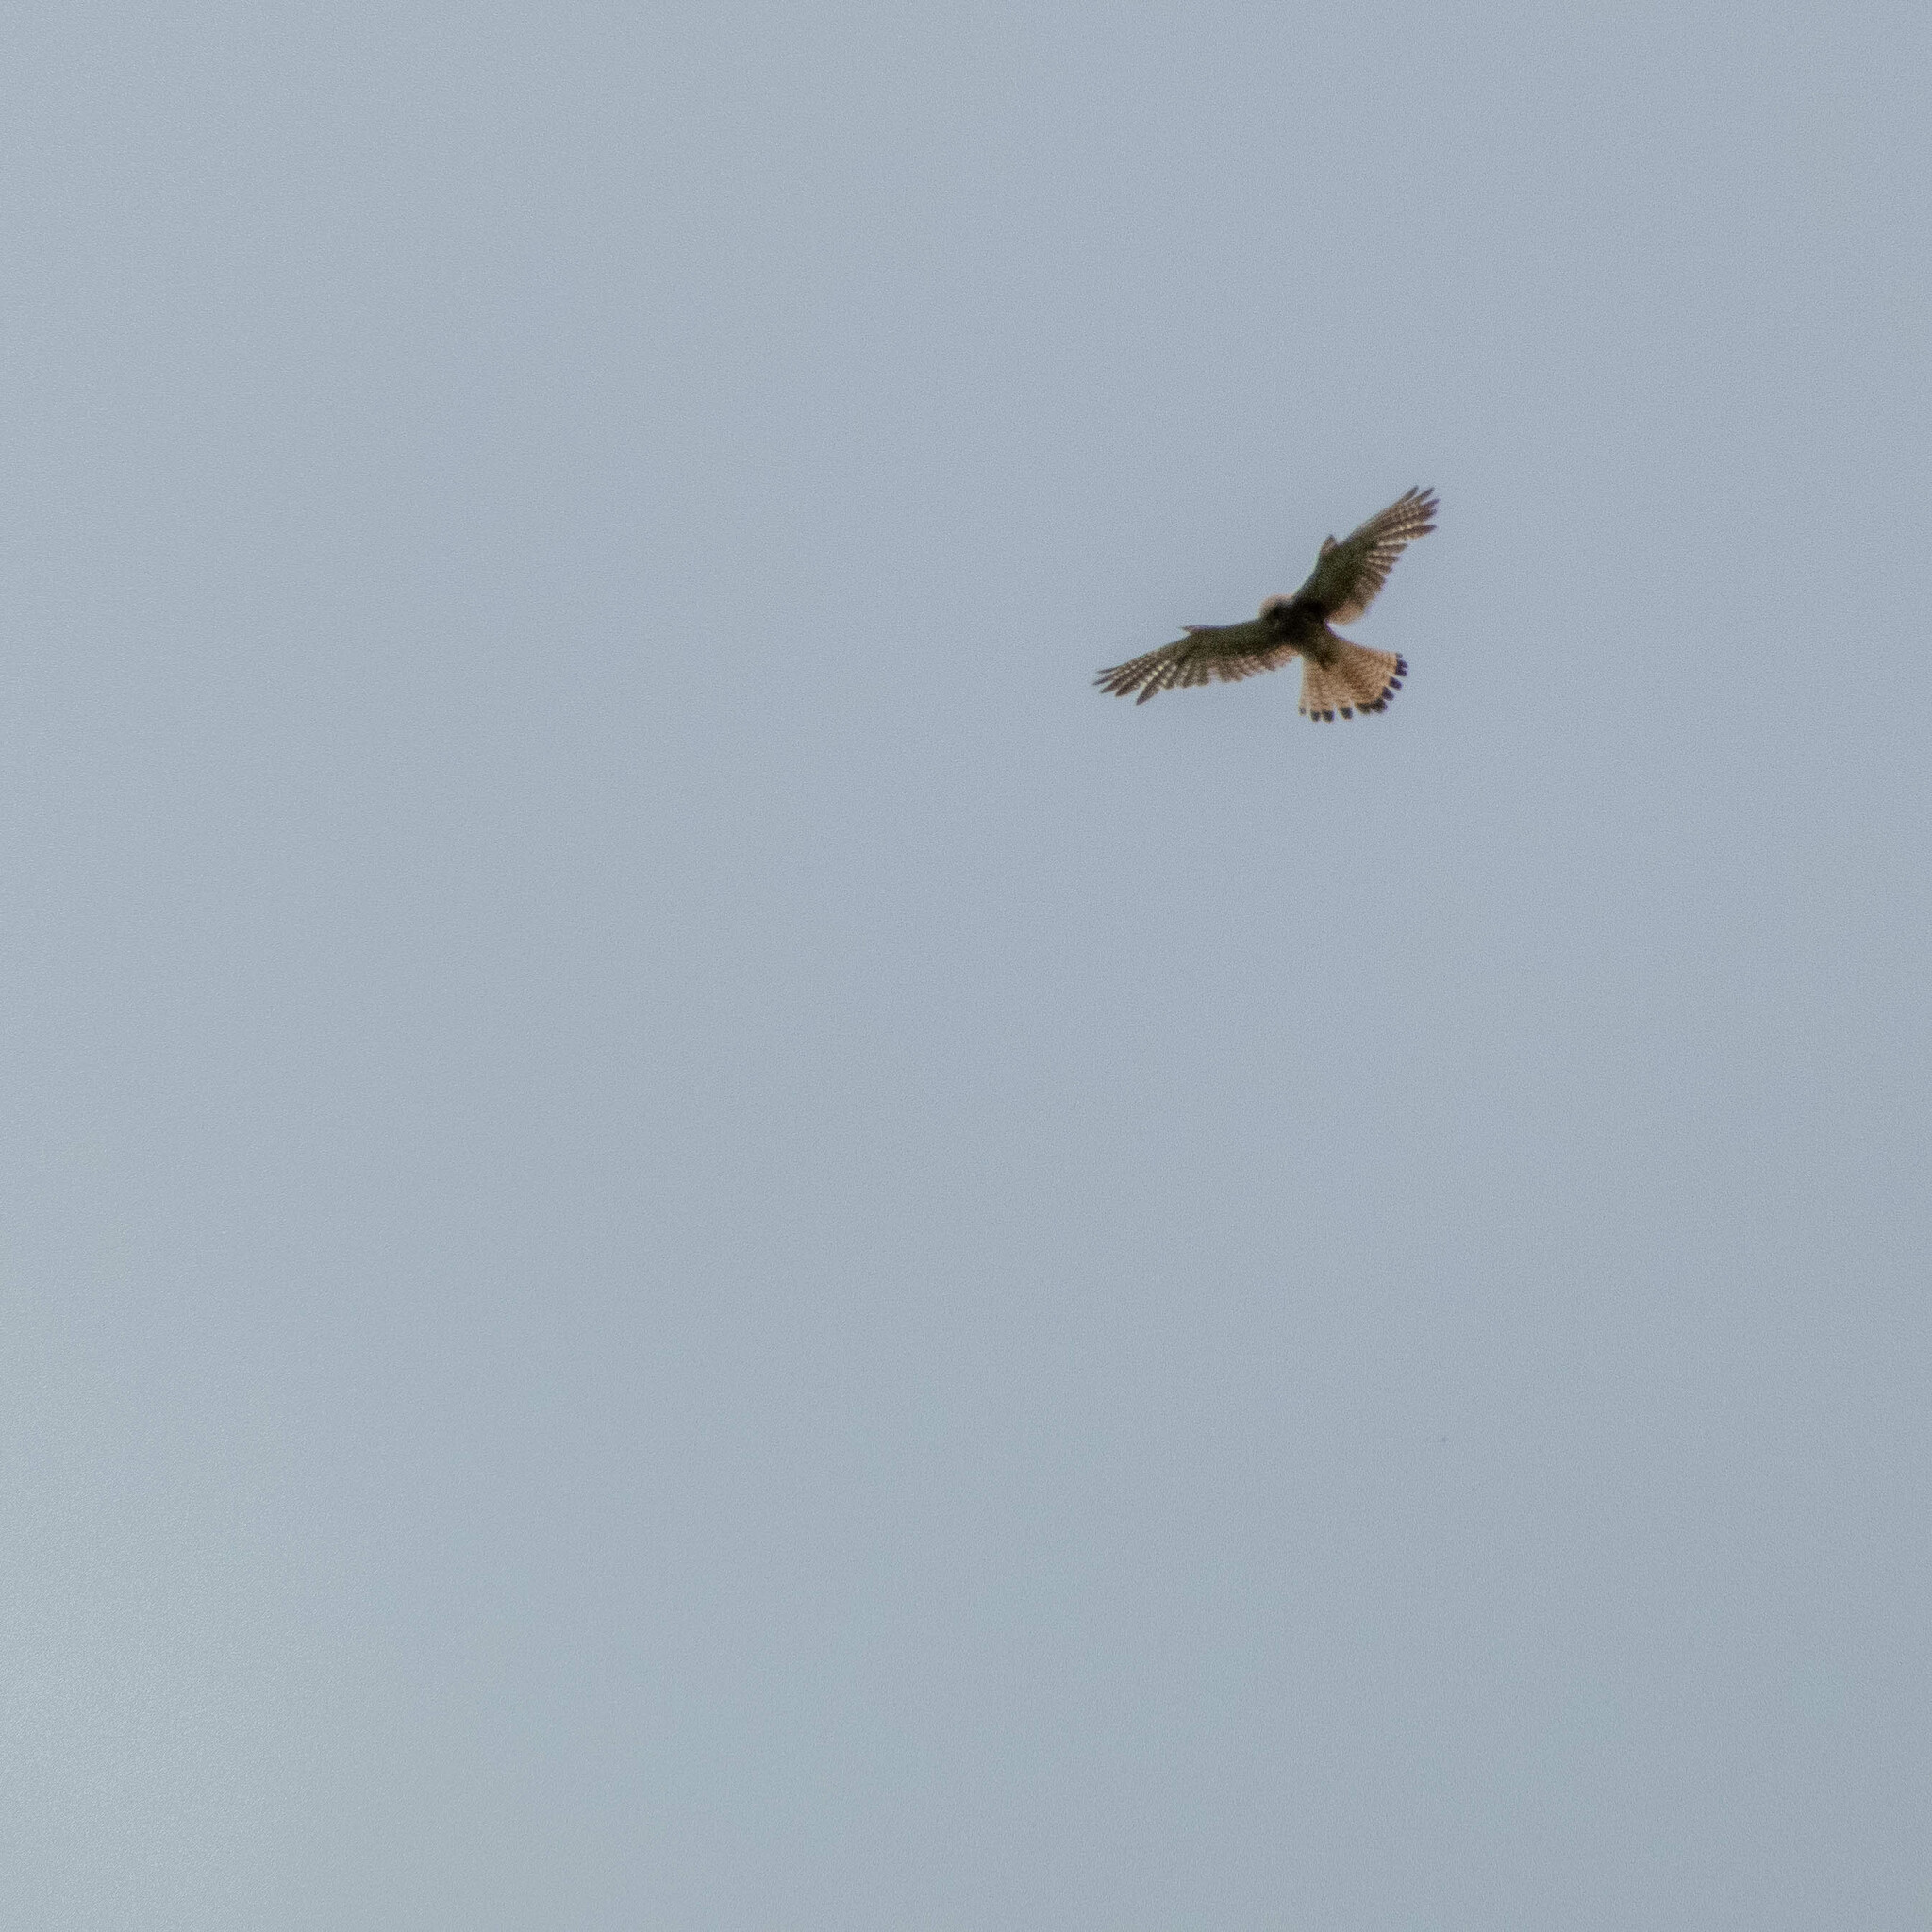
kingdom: Animalia
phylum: Chordata
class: Aves
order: Falconiformes
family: Falconidae
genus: Falco
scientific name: Falco tinnunculus
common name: Common kestrel
